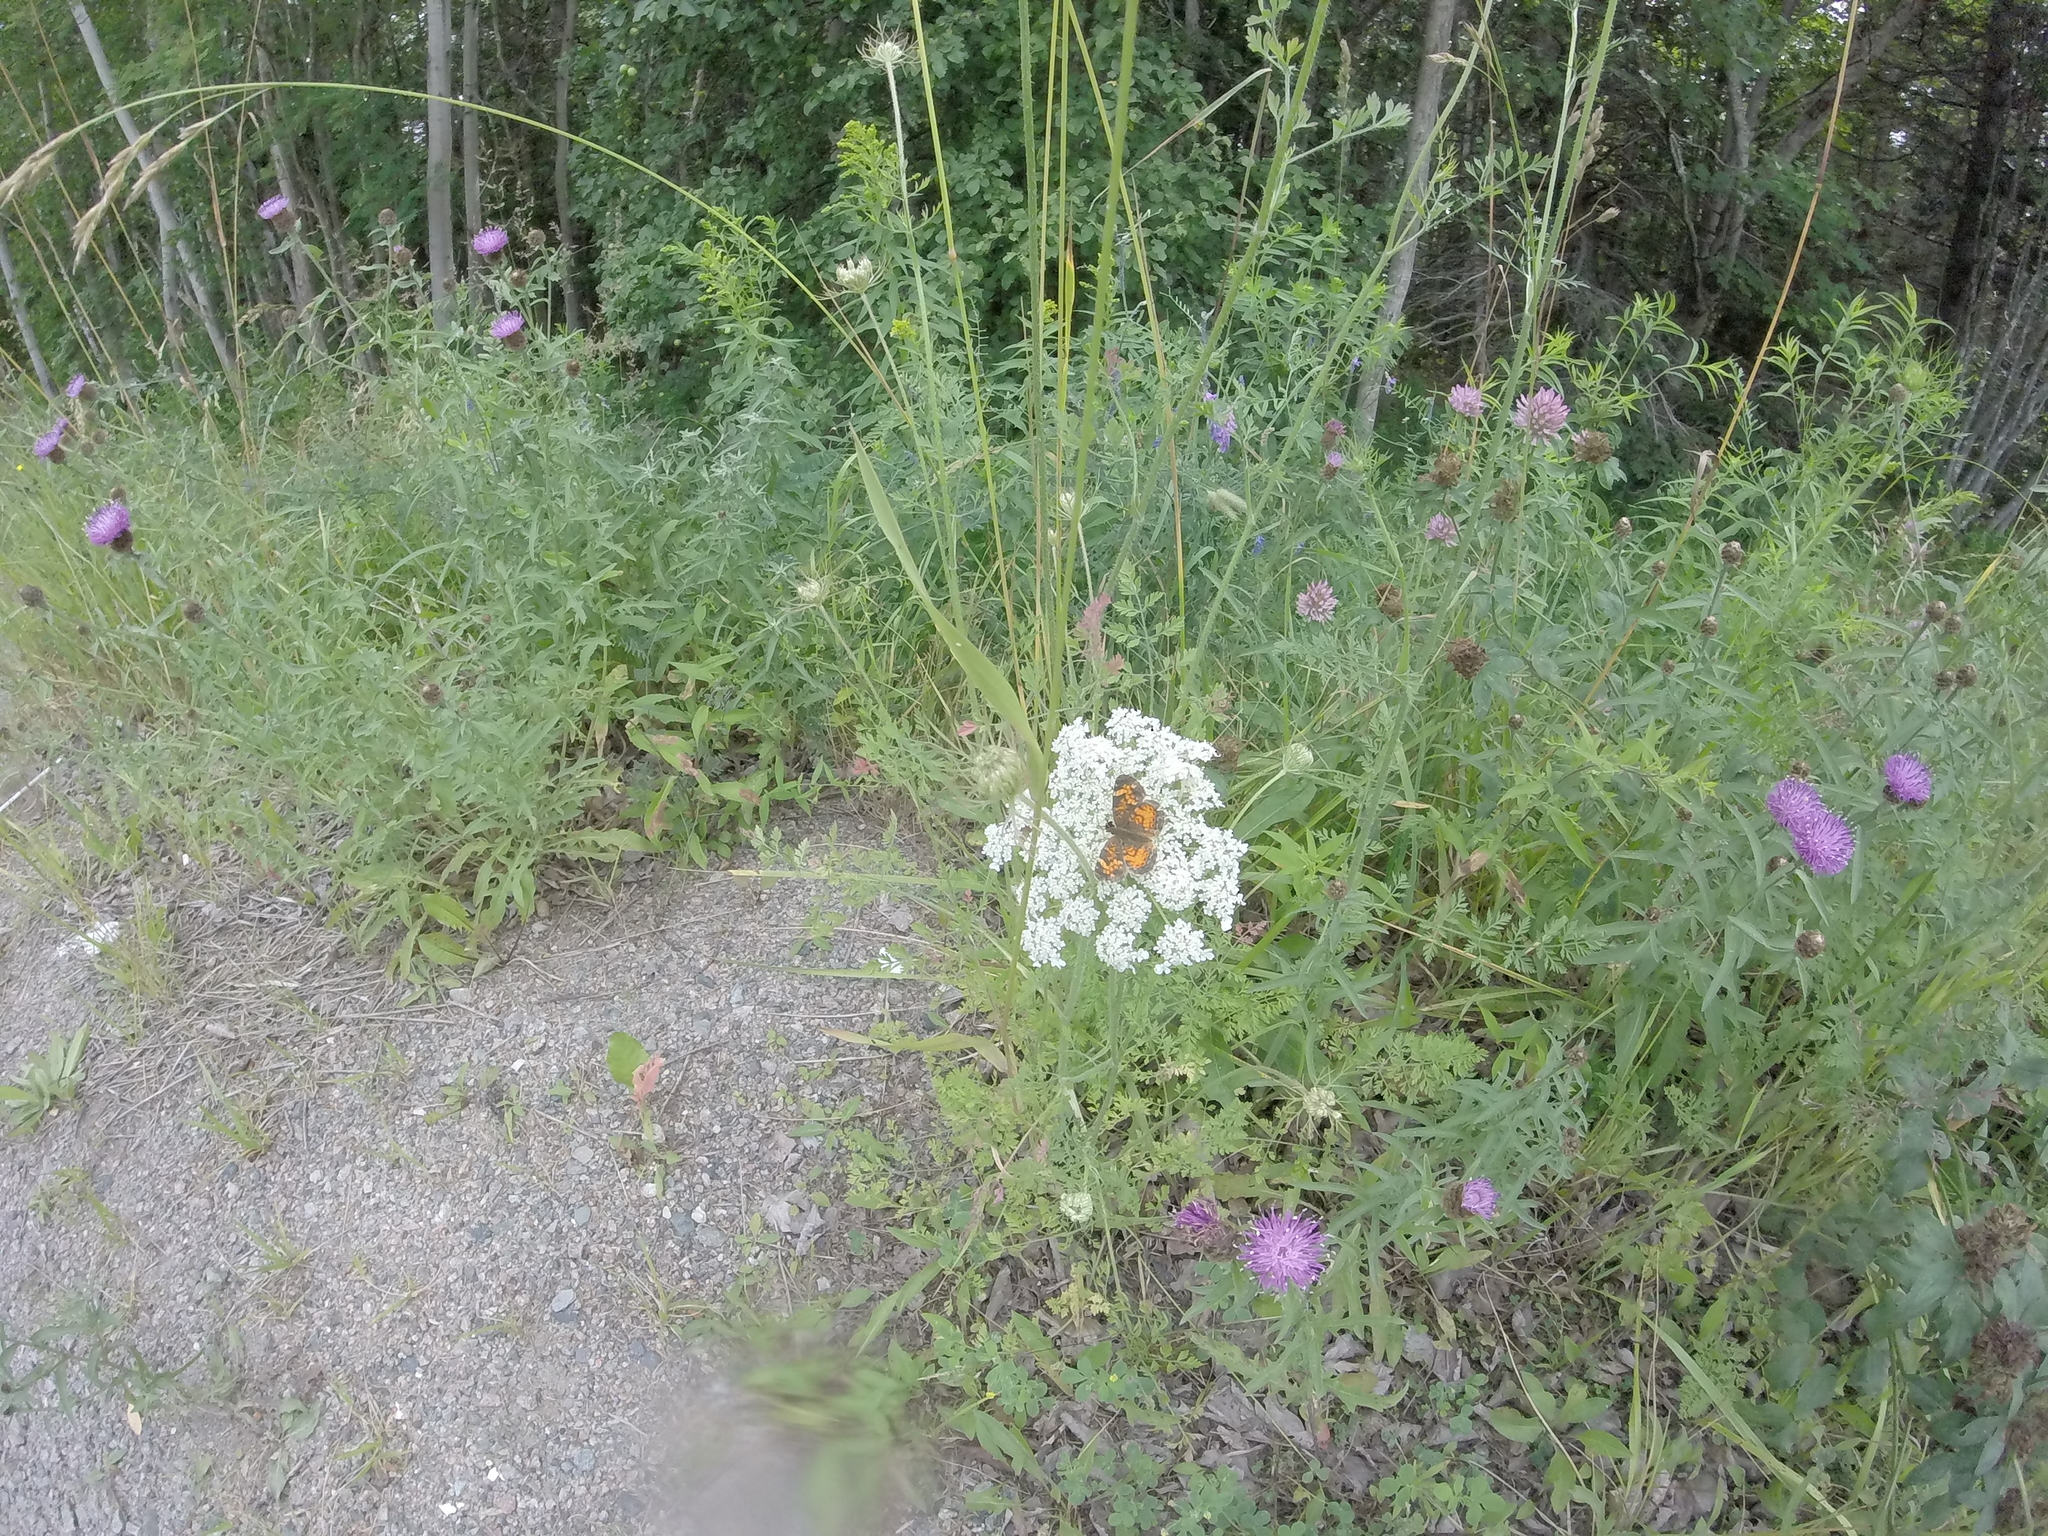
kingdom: Animalia
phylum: Arthropoda
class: Insecta
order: Lepidoptera
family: Nymphalidae
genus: Phyciodes
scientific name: Phyciodes tharos
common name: Pearl crescent
